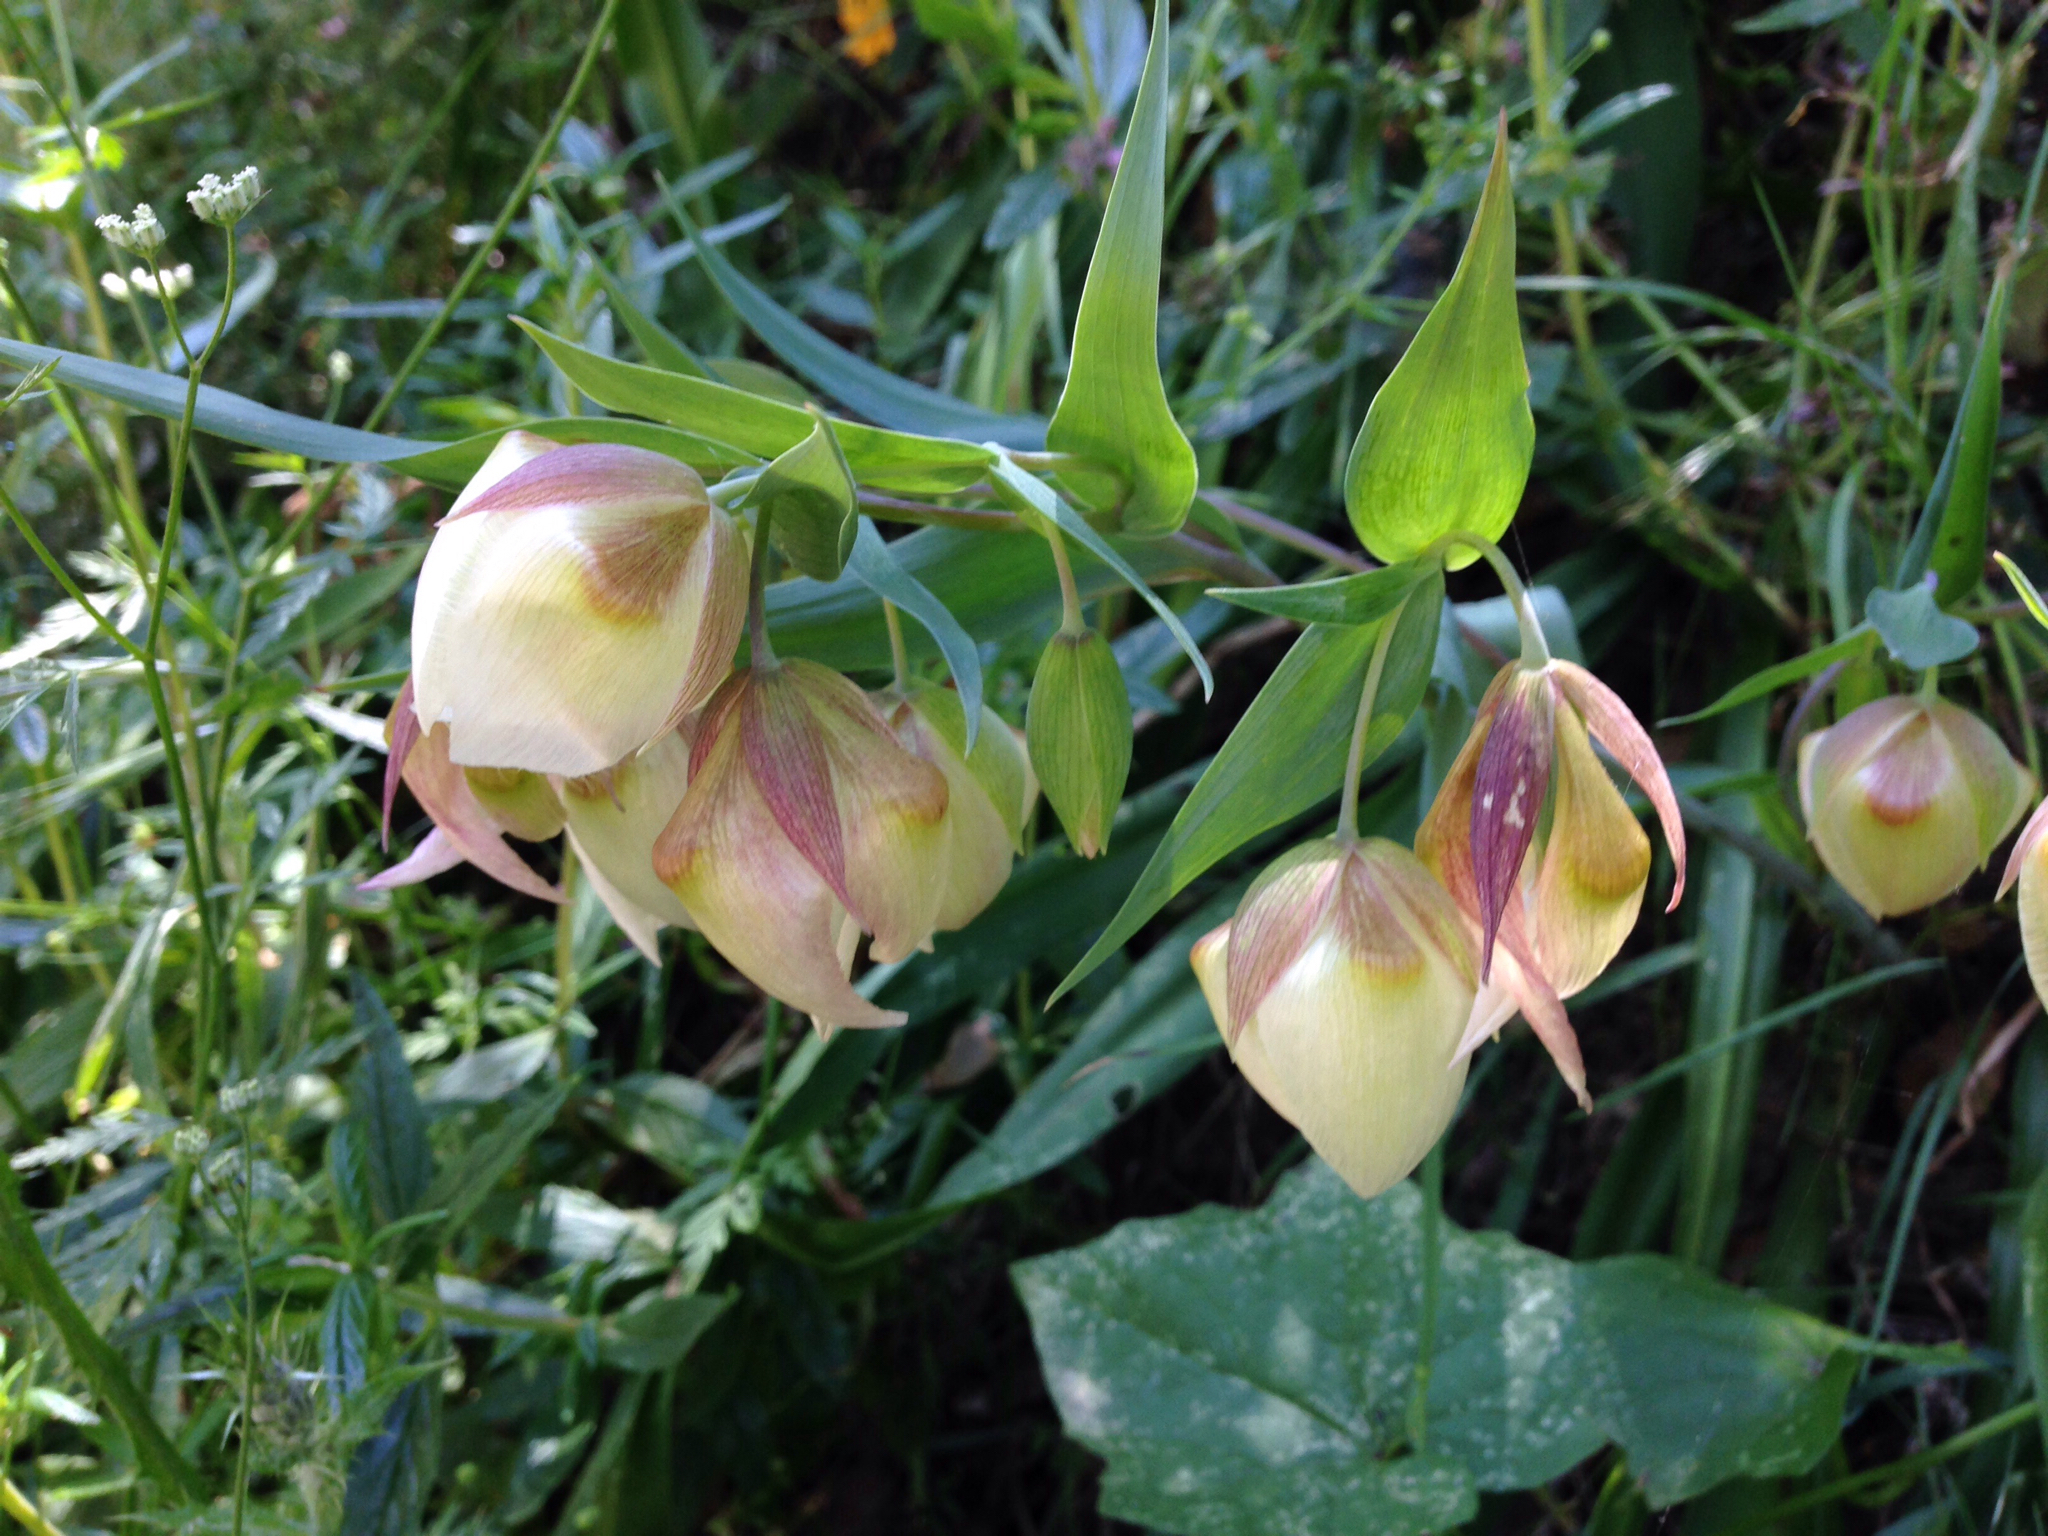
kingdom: Plantae
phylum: Tracheophyta
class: Liliopsida
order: Liliales
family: Liliaceae
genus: Calochortus
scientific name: Calochortus albus
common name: Fairy-lantern
